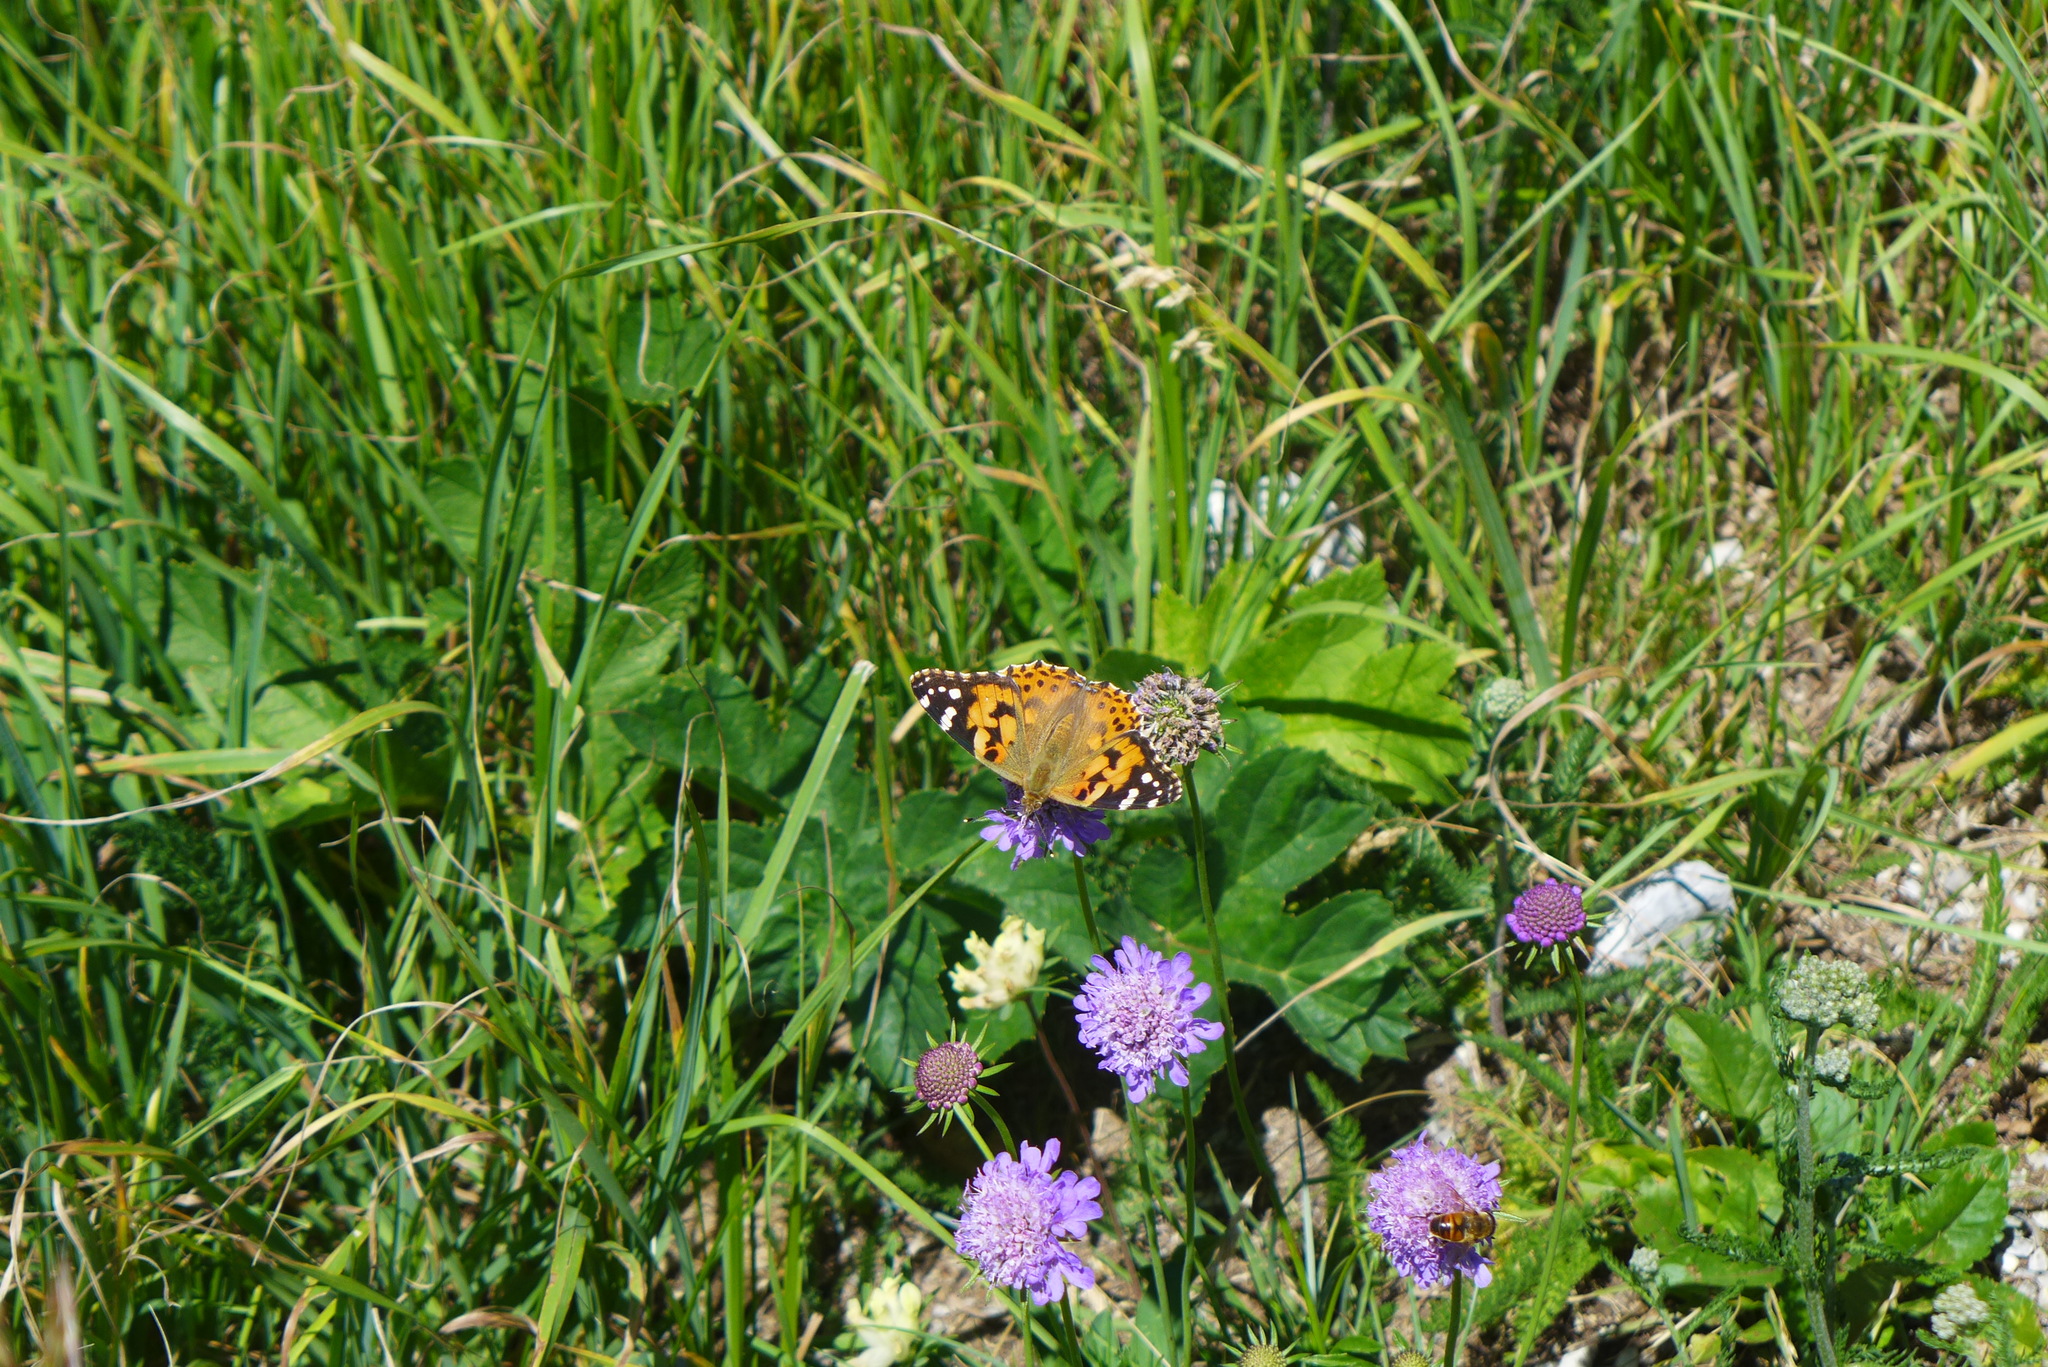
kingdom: Animalia
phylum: Arthropoda
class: Insecta
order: Lepidoptera
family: Nymphalidae
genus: Vanessa
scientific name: Vanessa cardui
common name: Painted lady
